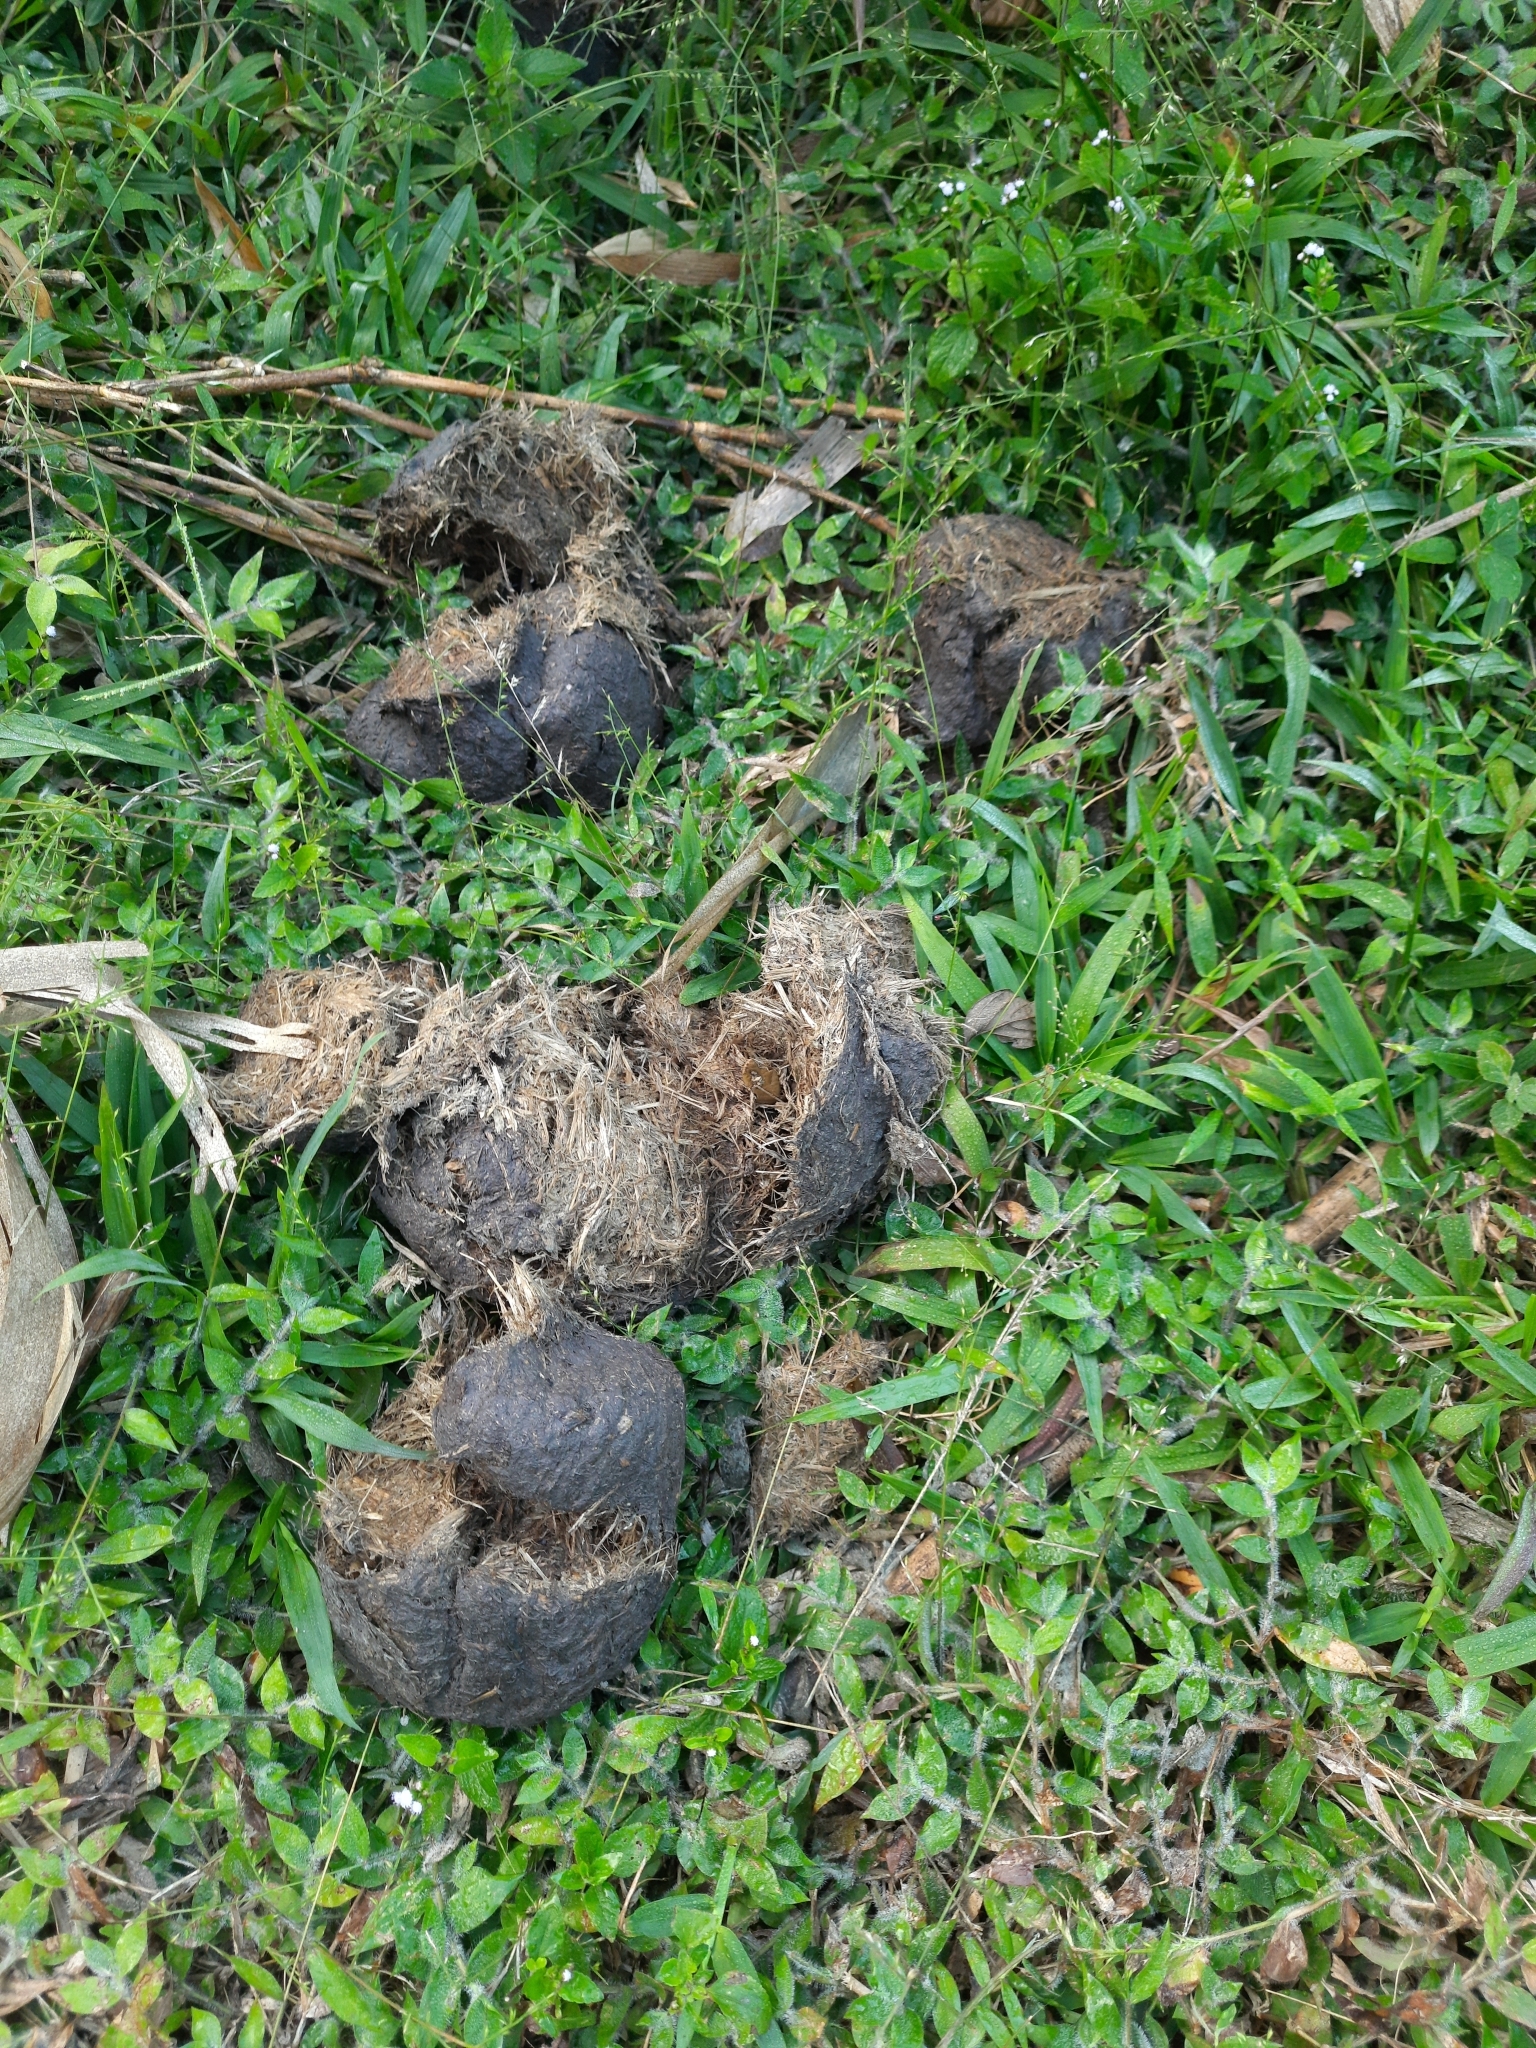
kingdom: Animalia
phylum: Chordata
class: Mammalia
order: Proboscidea
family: Elephantidae
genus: Elephas
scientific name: Elephas maximus
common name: Asian elephant
